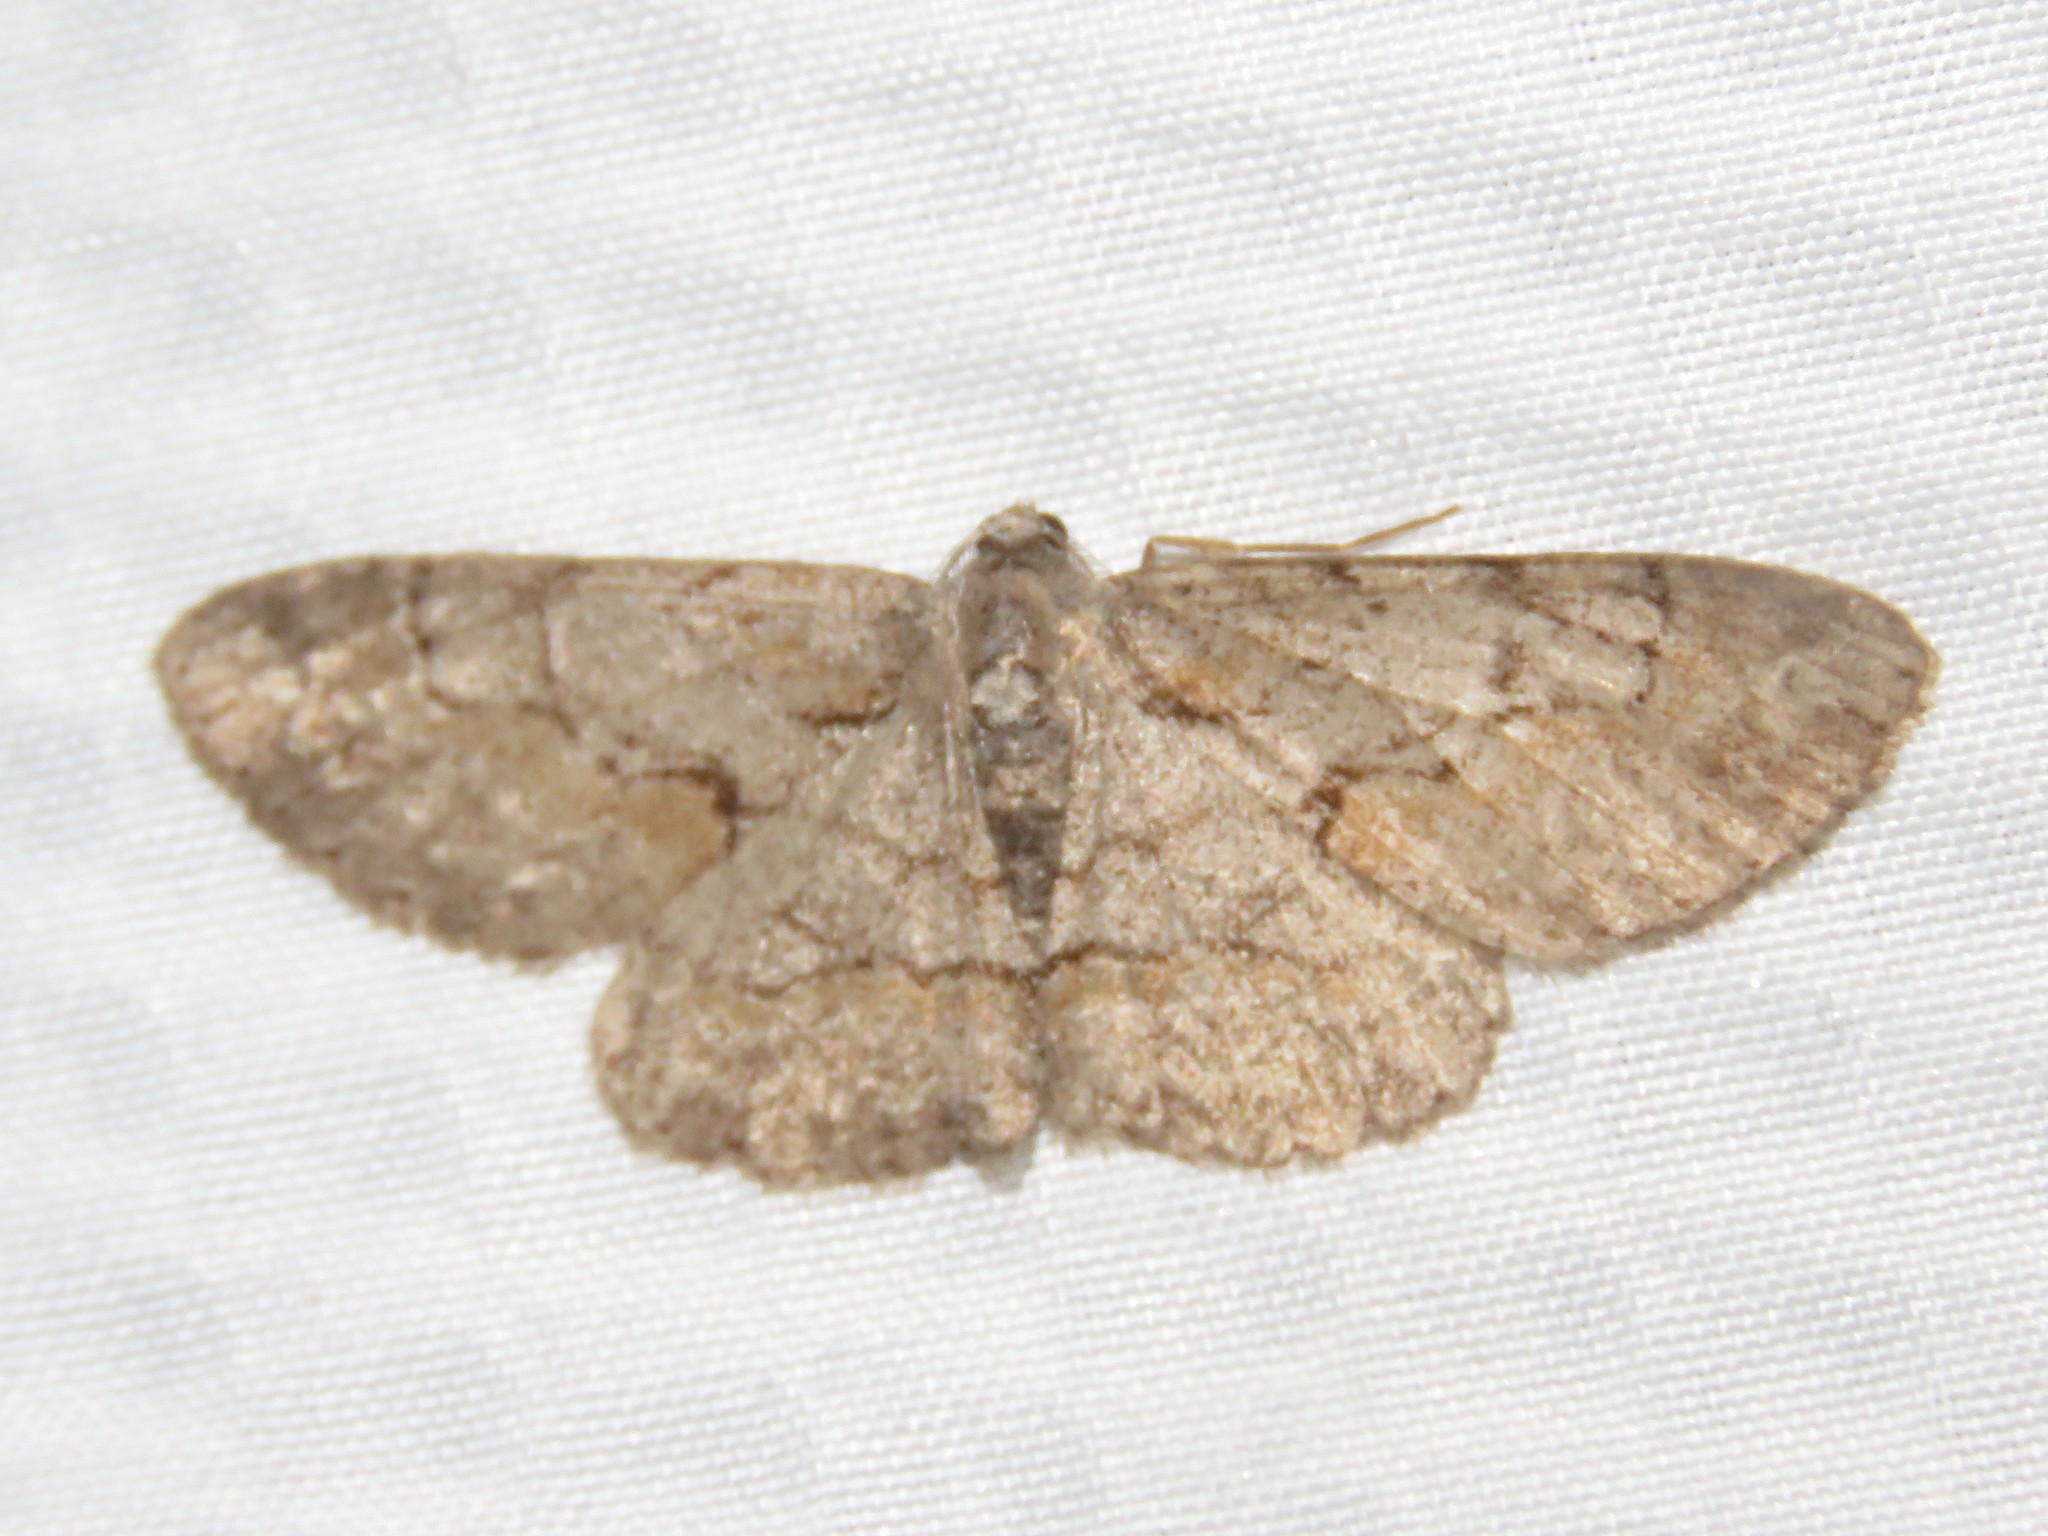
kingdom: Animalia
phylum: Arthropoda
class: Insecta
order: Lepidoptera
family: Geometridae
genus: Iridopsis
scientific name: Iridopsis vellivolata
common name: Large purplish gray
